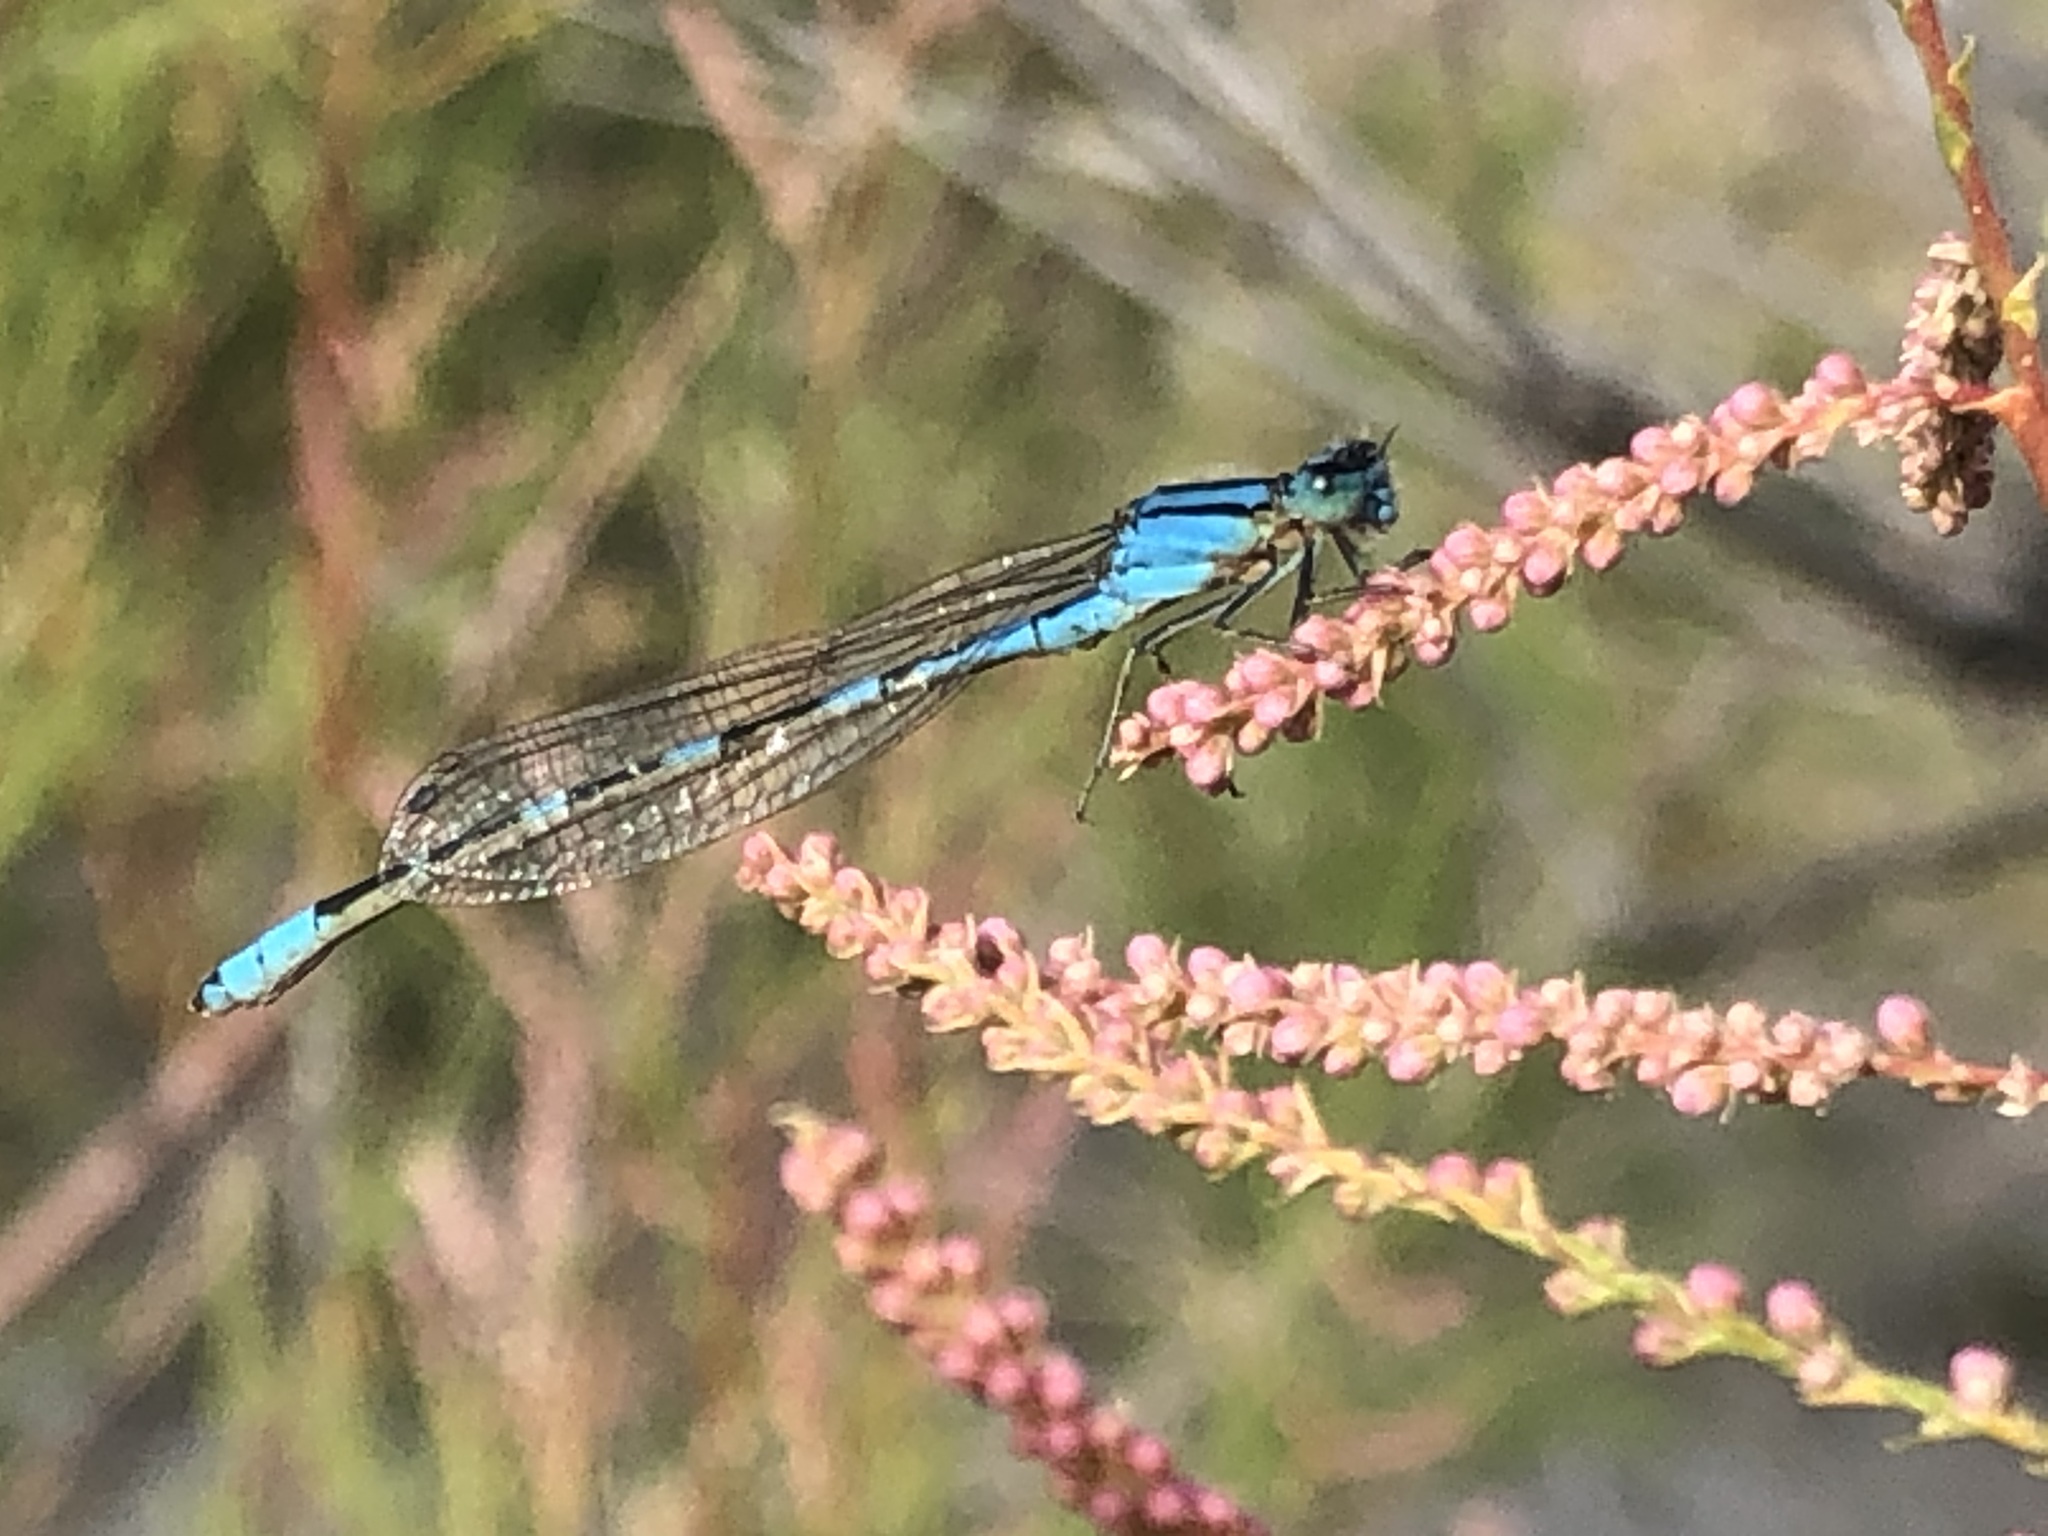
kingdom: Animalia
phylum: Arthropoda
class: Insecta
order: Odonata
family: Coenagrionidae
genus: Enallagma
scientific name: Enallagma carunculatum
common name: Tule bluet
